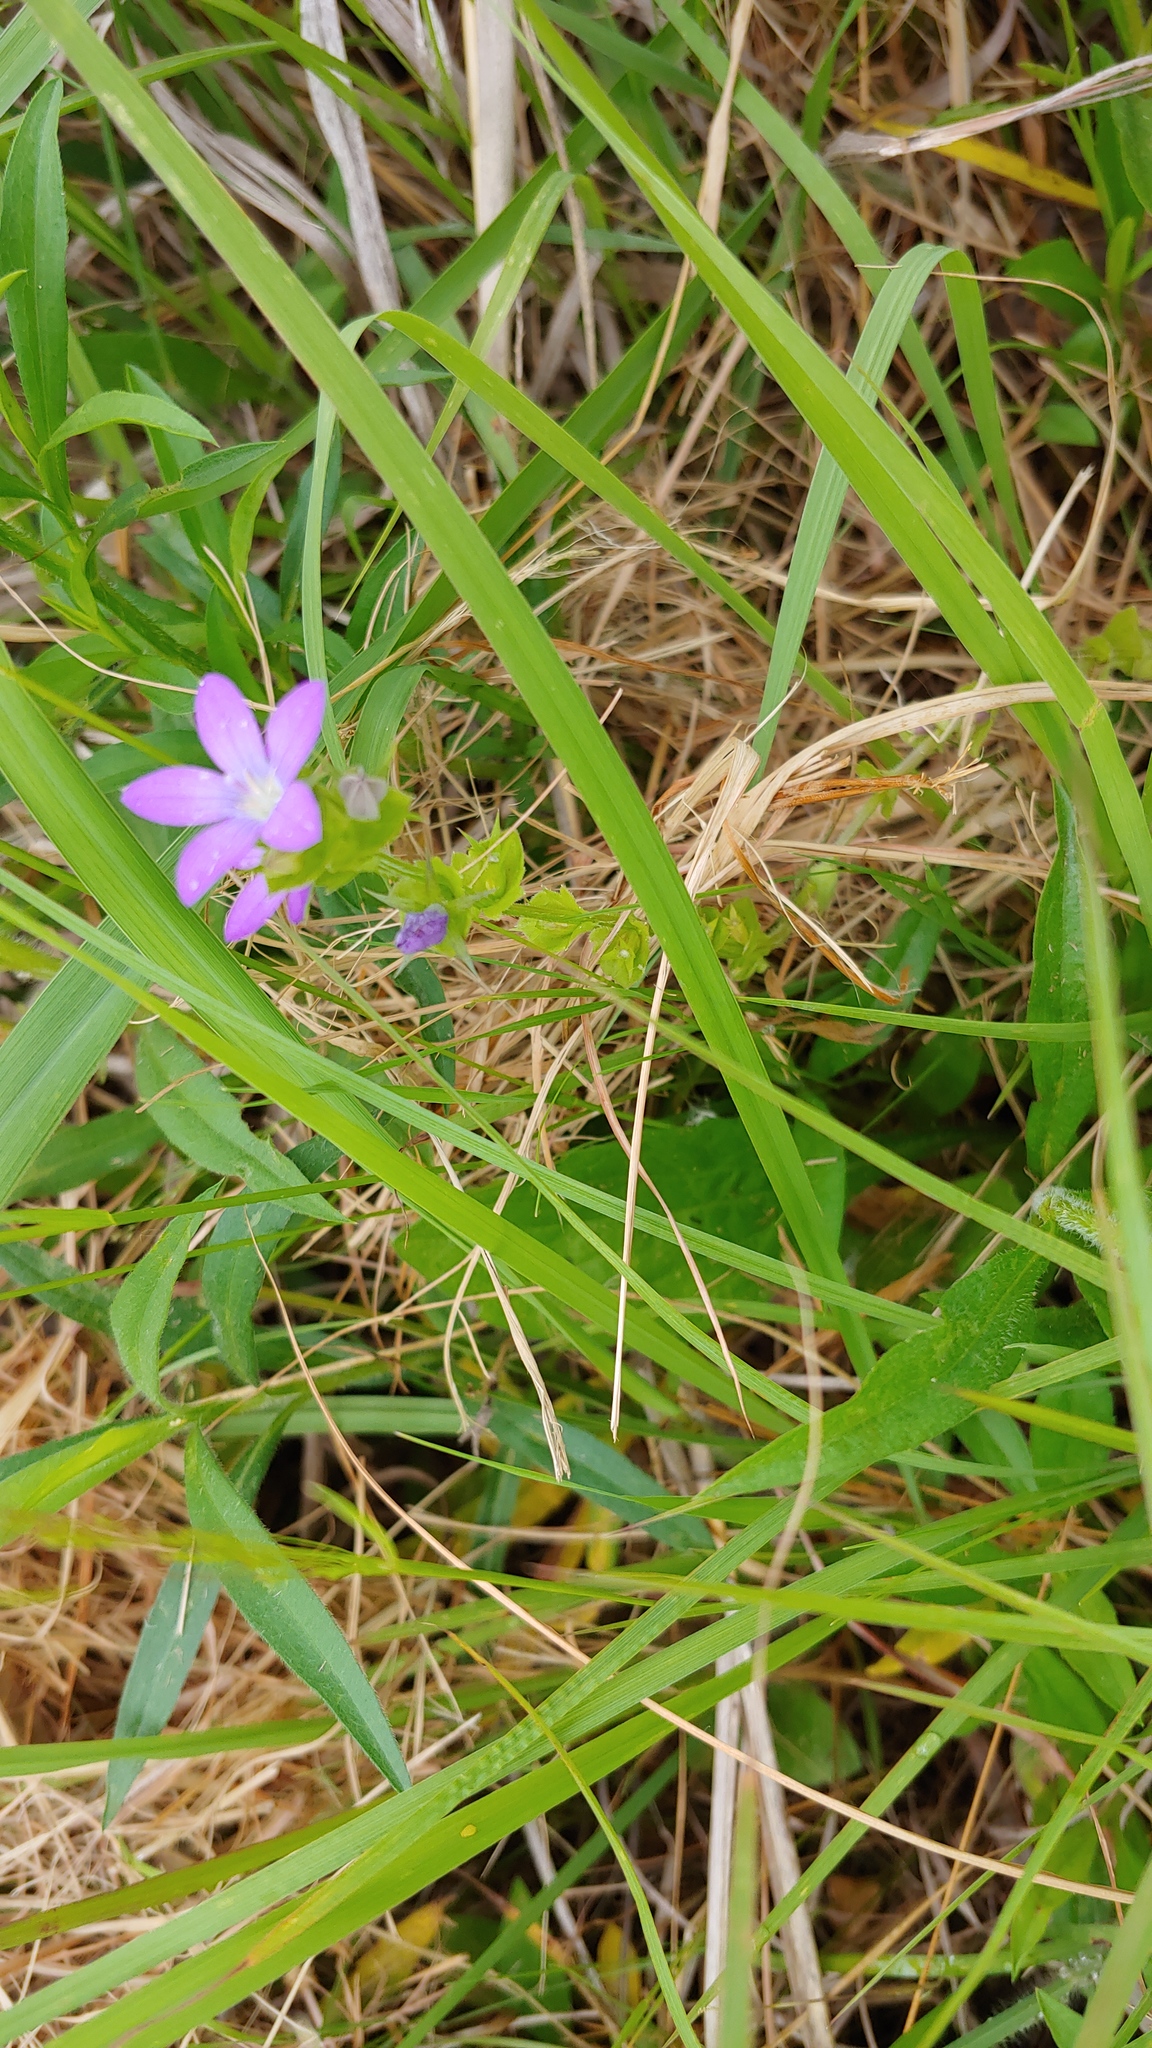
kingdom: Plantae
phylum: Tracheophyta
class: Magnoliopsida
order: Asterales
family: Campanulaceae
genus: Triodanis
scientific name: Triodanis perfoliata
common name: Clasping venus' looking-glass
